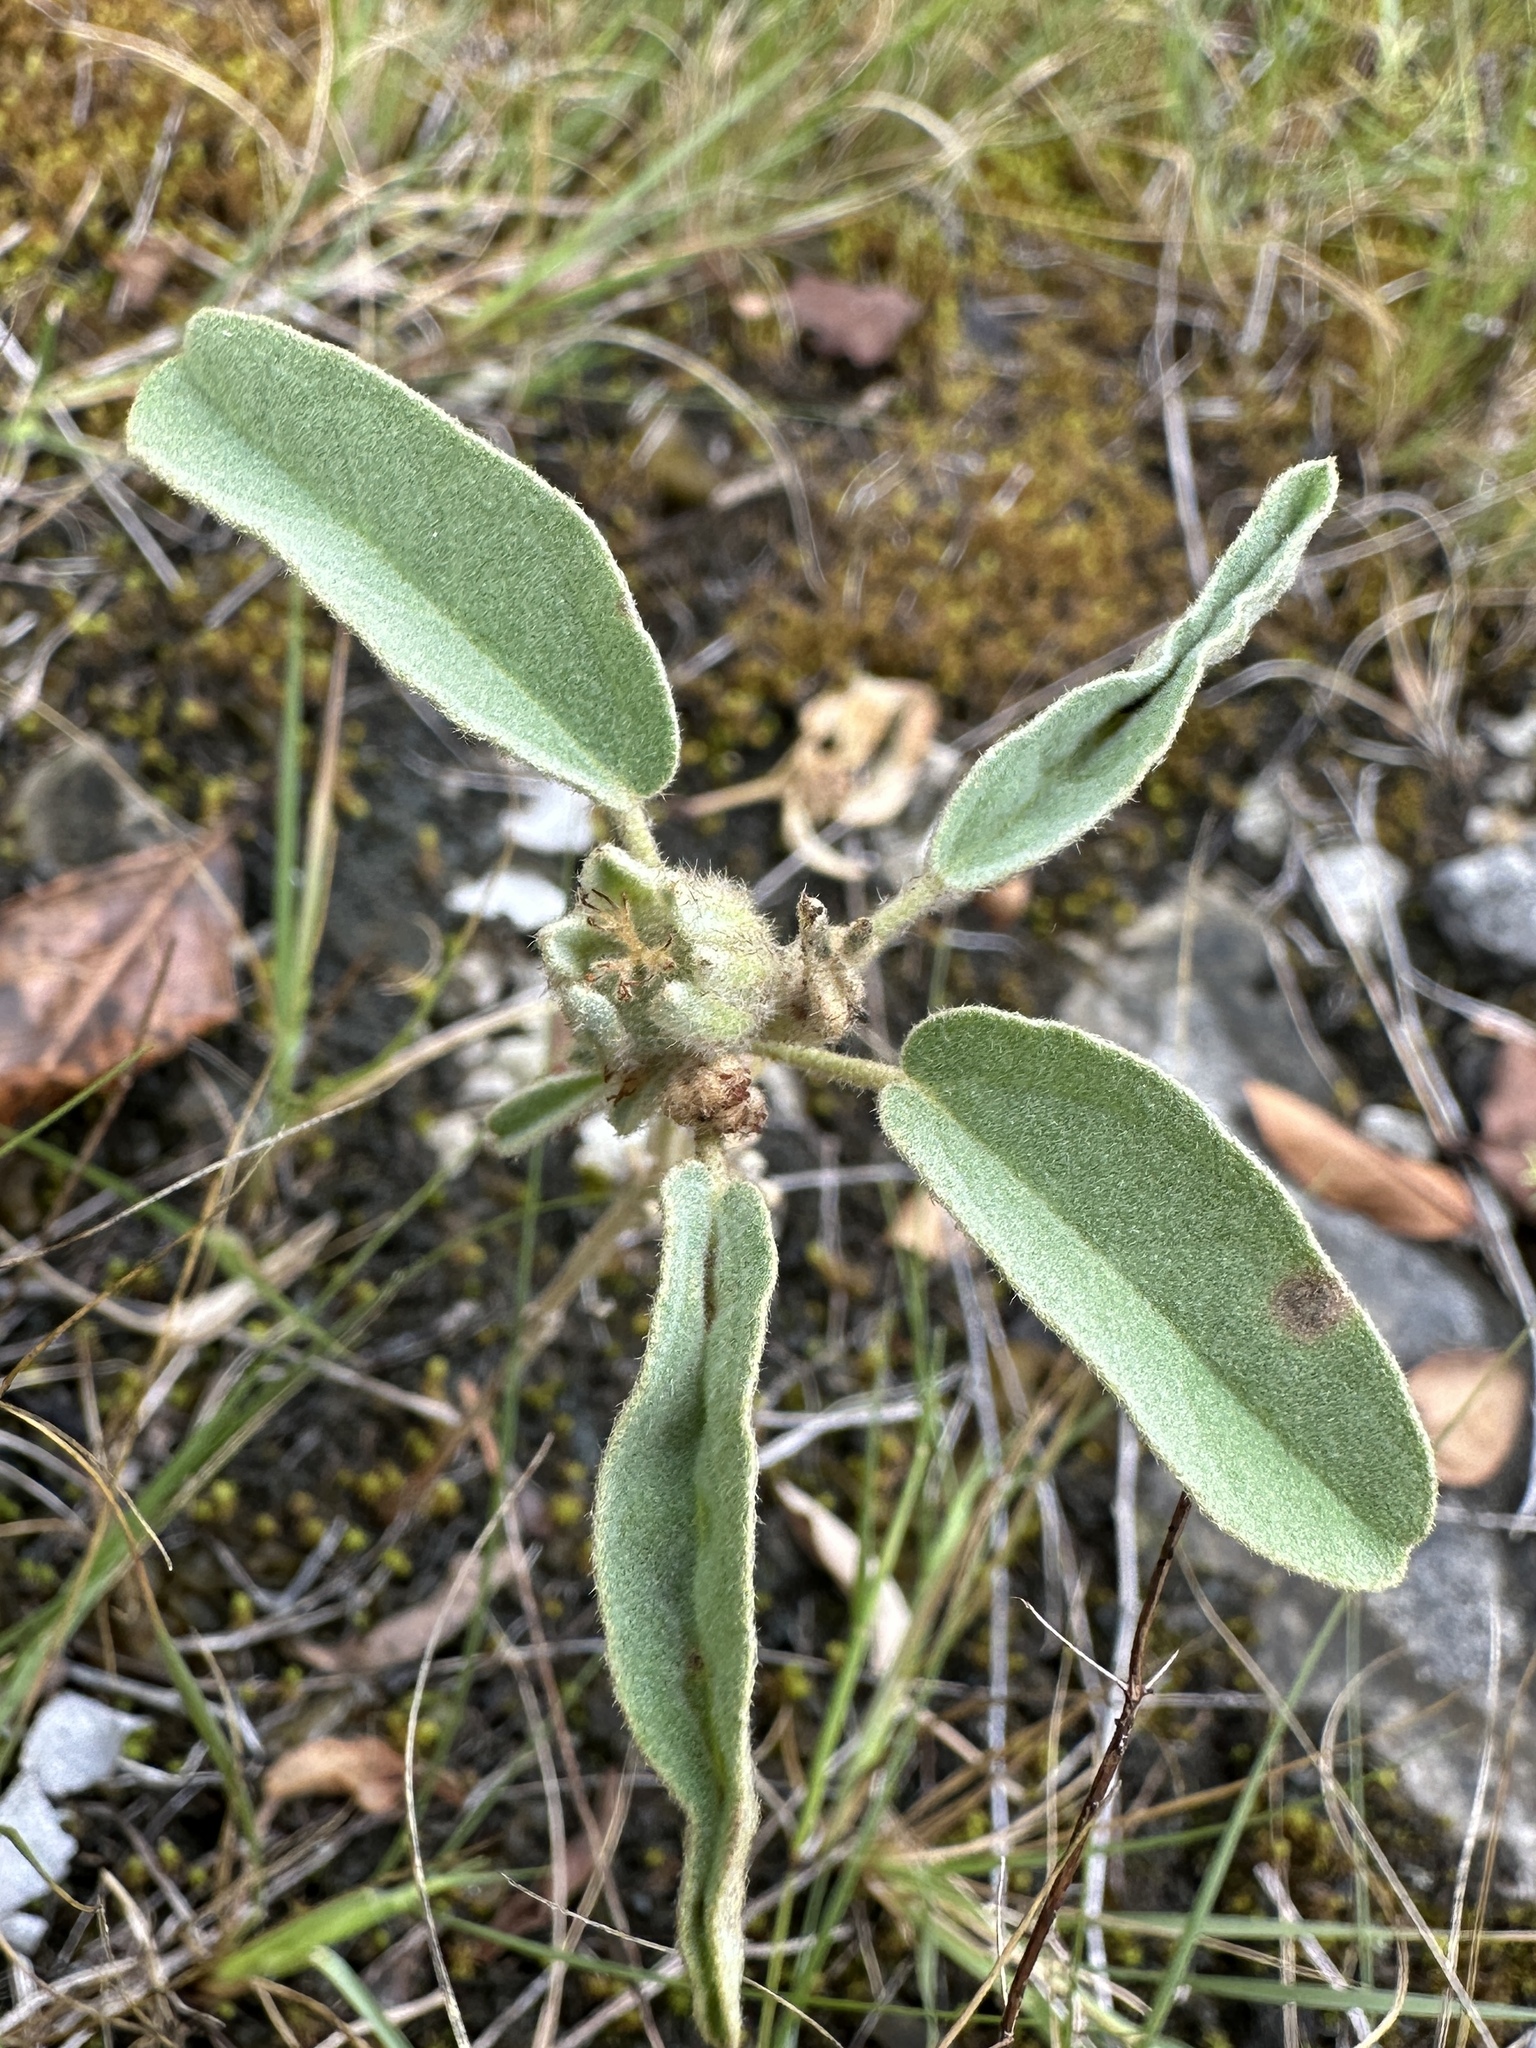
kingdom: Plantae
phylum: Tracheophyta
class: Magnoliopsida
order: Malpighiales
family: Euphorbiaceae
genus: Croton
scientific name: Croton capitatus
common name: Woolly croton
